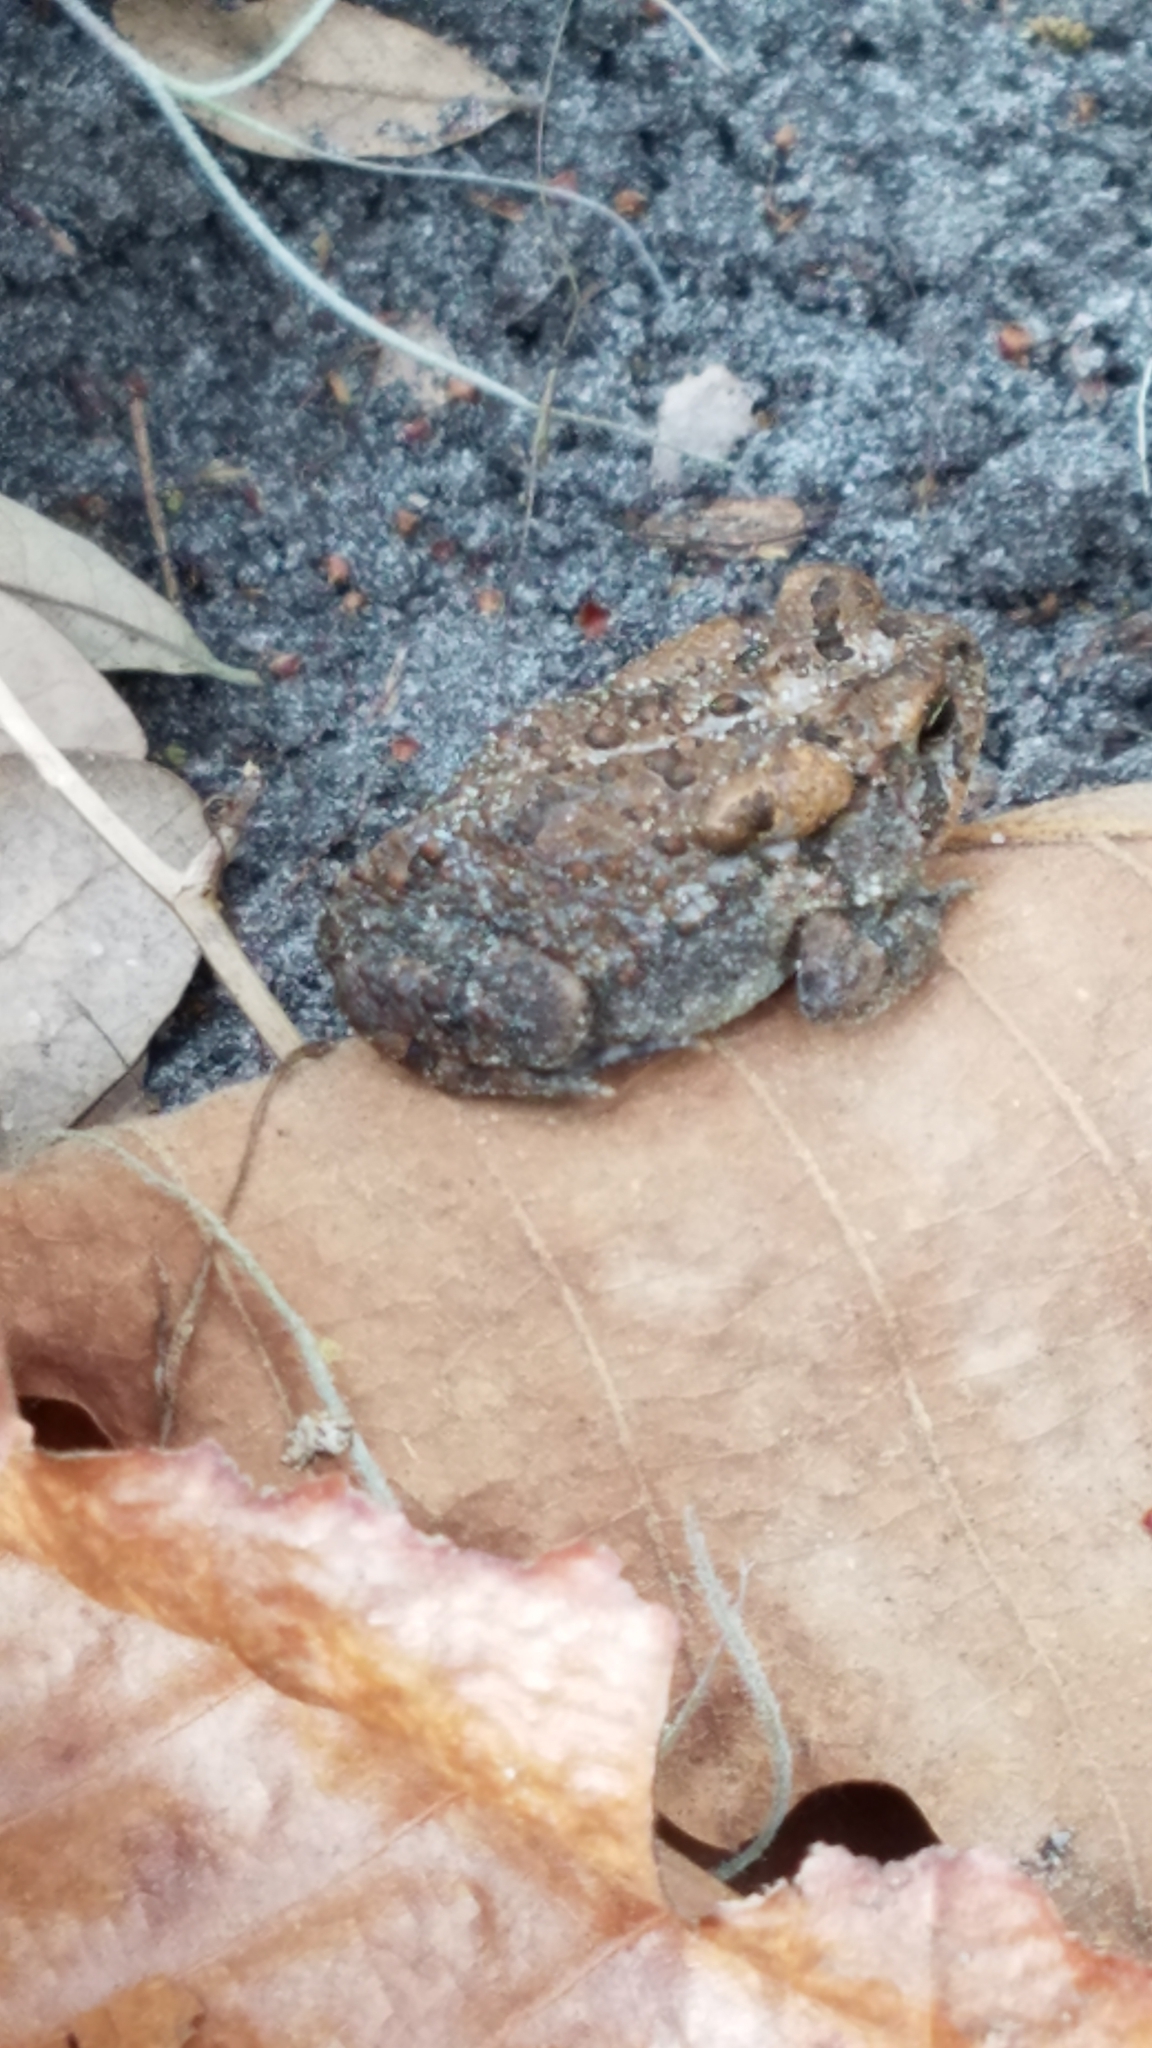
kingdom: Animalia
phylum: Chordata
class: Amphibia
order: Anura
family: Bufonidae
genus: Anaxyrus
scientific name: Anaxyrus terrestris
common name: Southern toad
